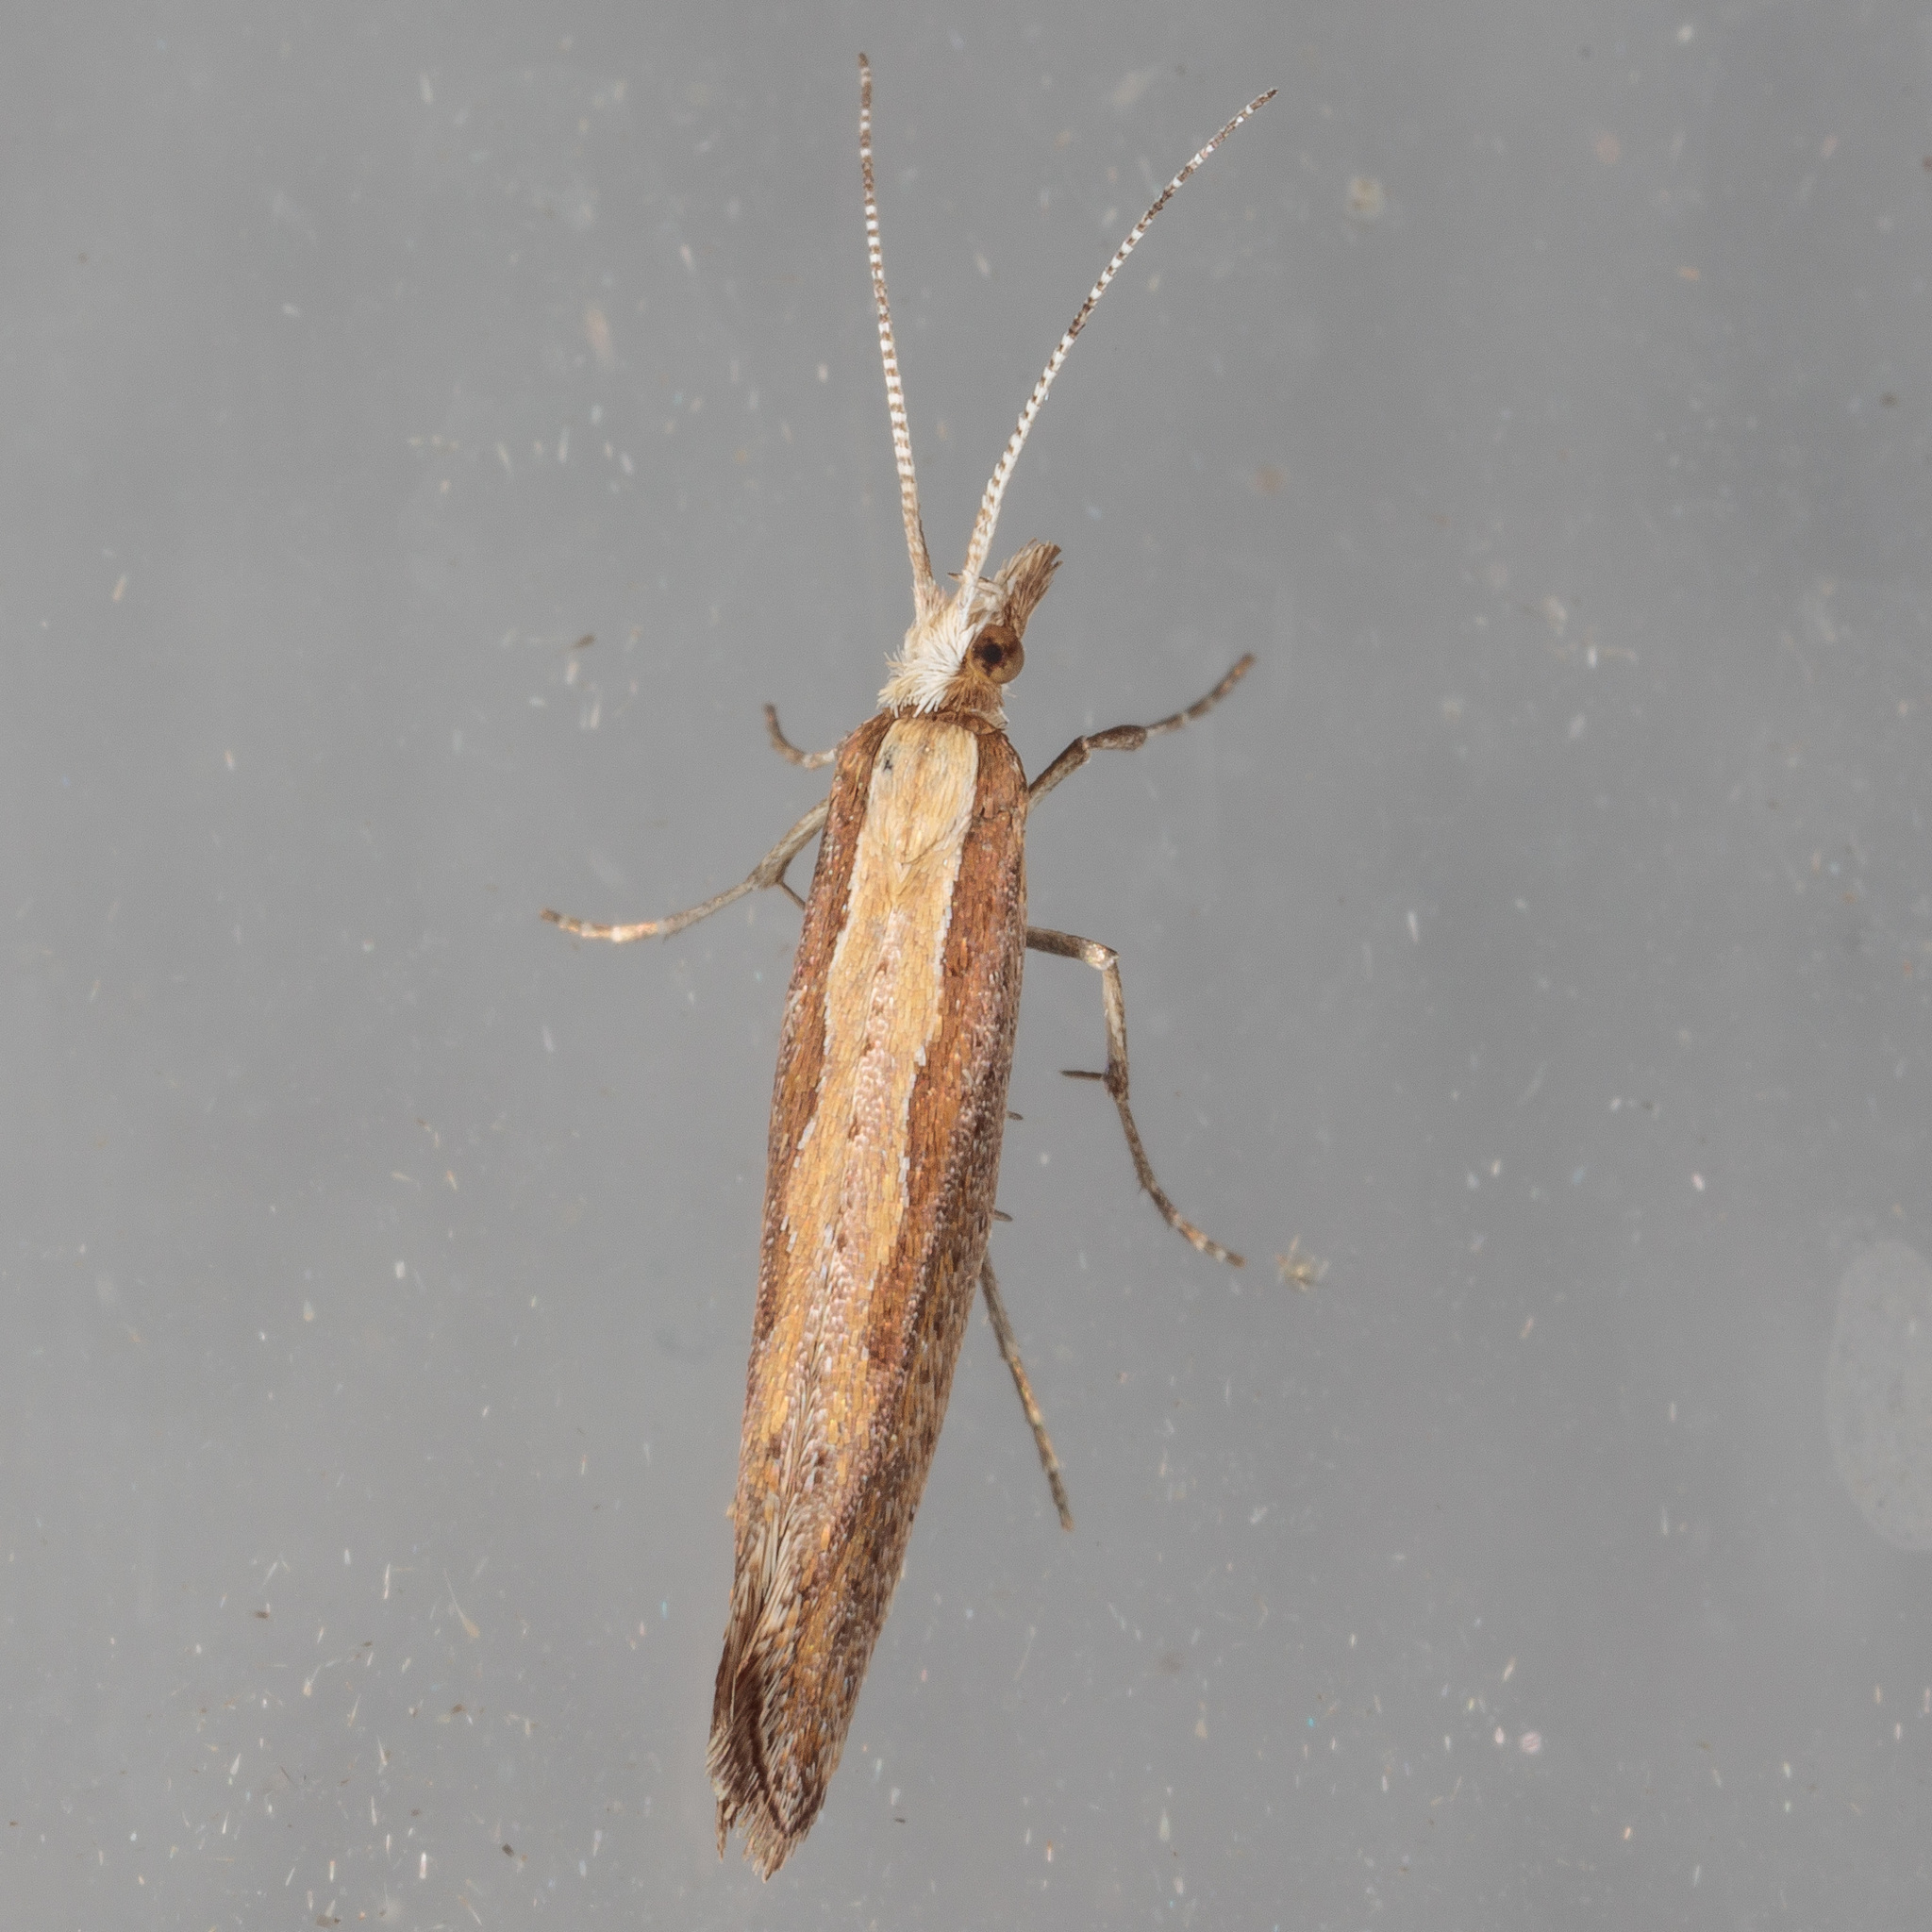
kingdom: Animalia
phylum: Arthropoda
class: Insecta
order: Lepidoptera
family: Plutellidae
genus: Plutella
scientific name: Plutella xylostella
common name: Diamond-back moth
